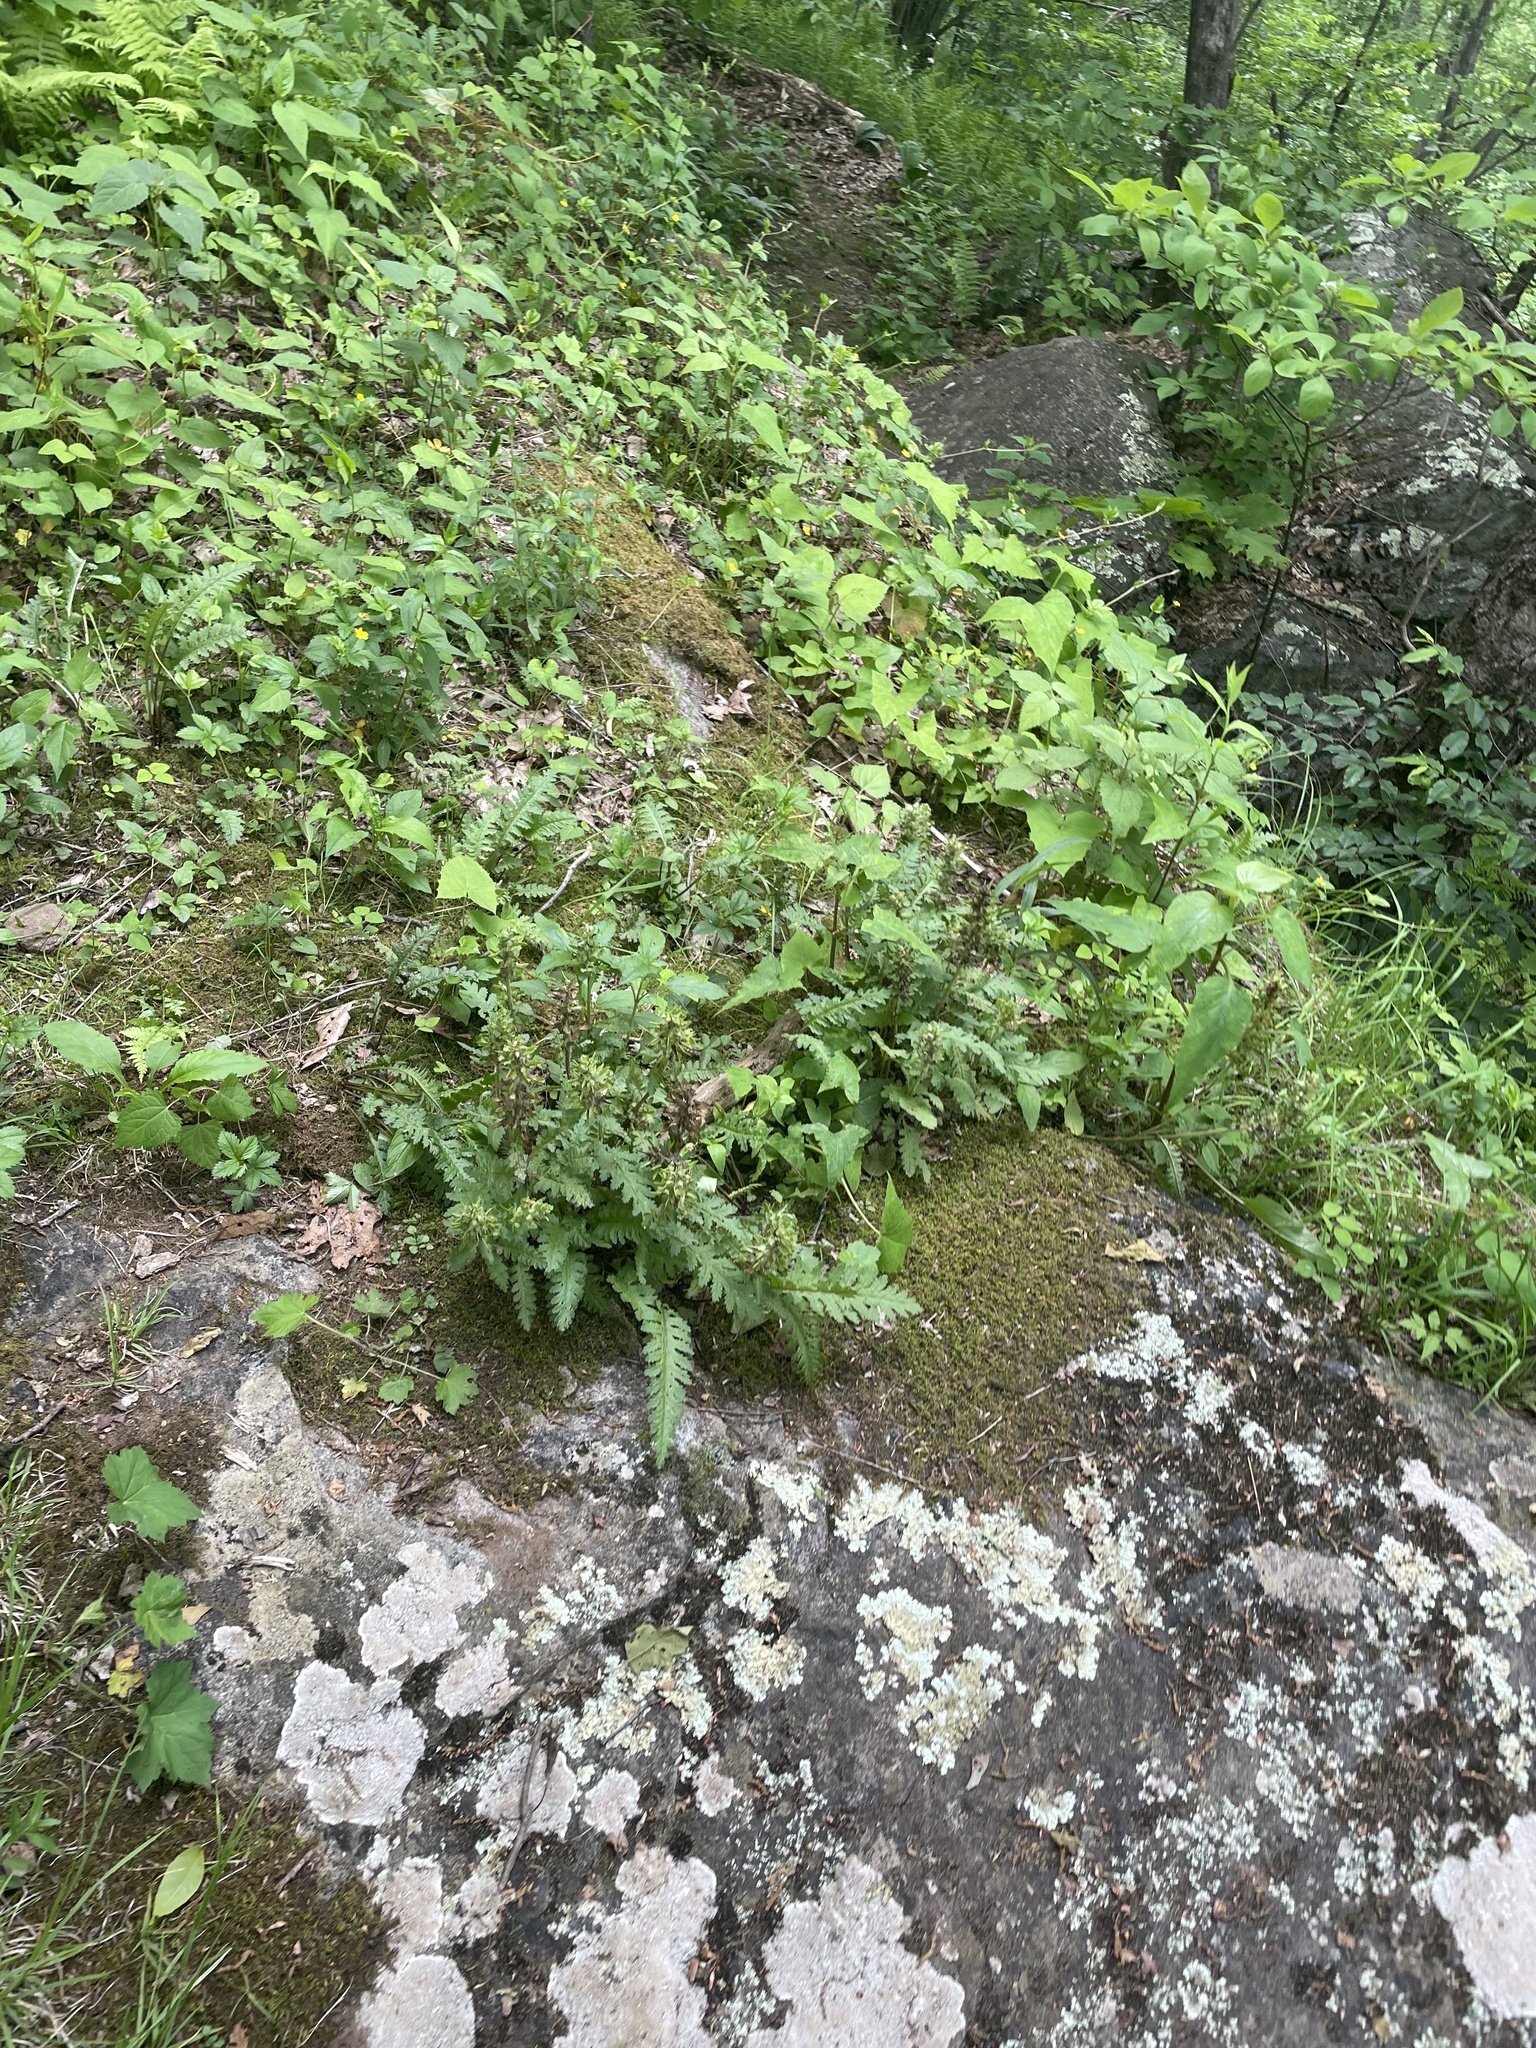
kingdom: Plantae
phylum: Tracheophyta
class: Magnoliopsida
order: Lamiales
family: Orobanchaceae
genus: Pedicularis
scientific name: Pedicularis canadensis
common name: Early lousewort
